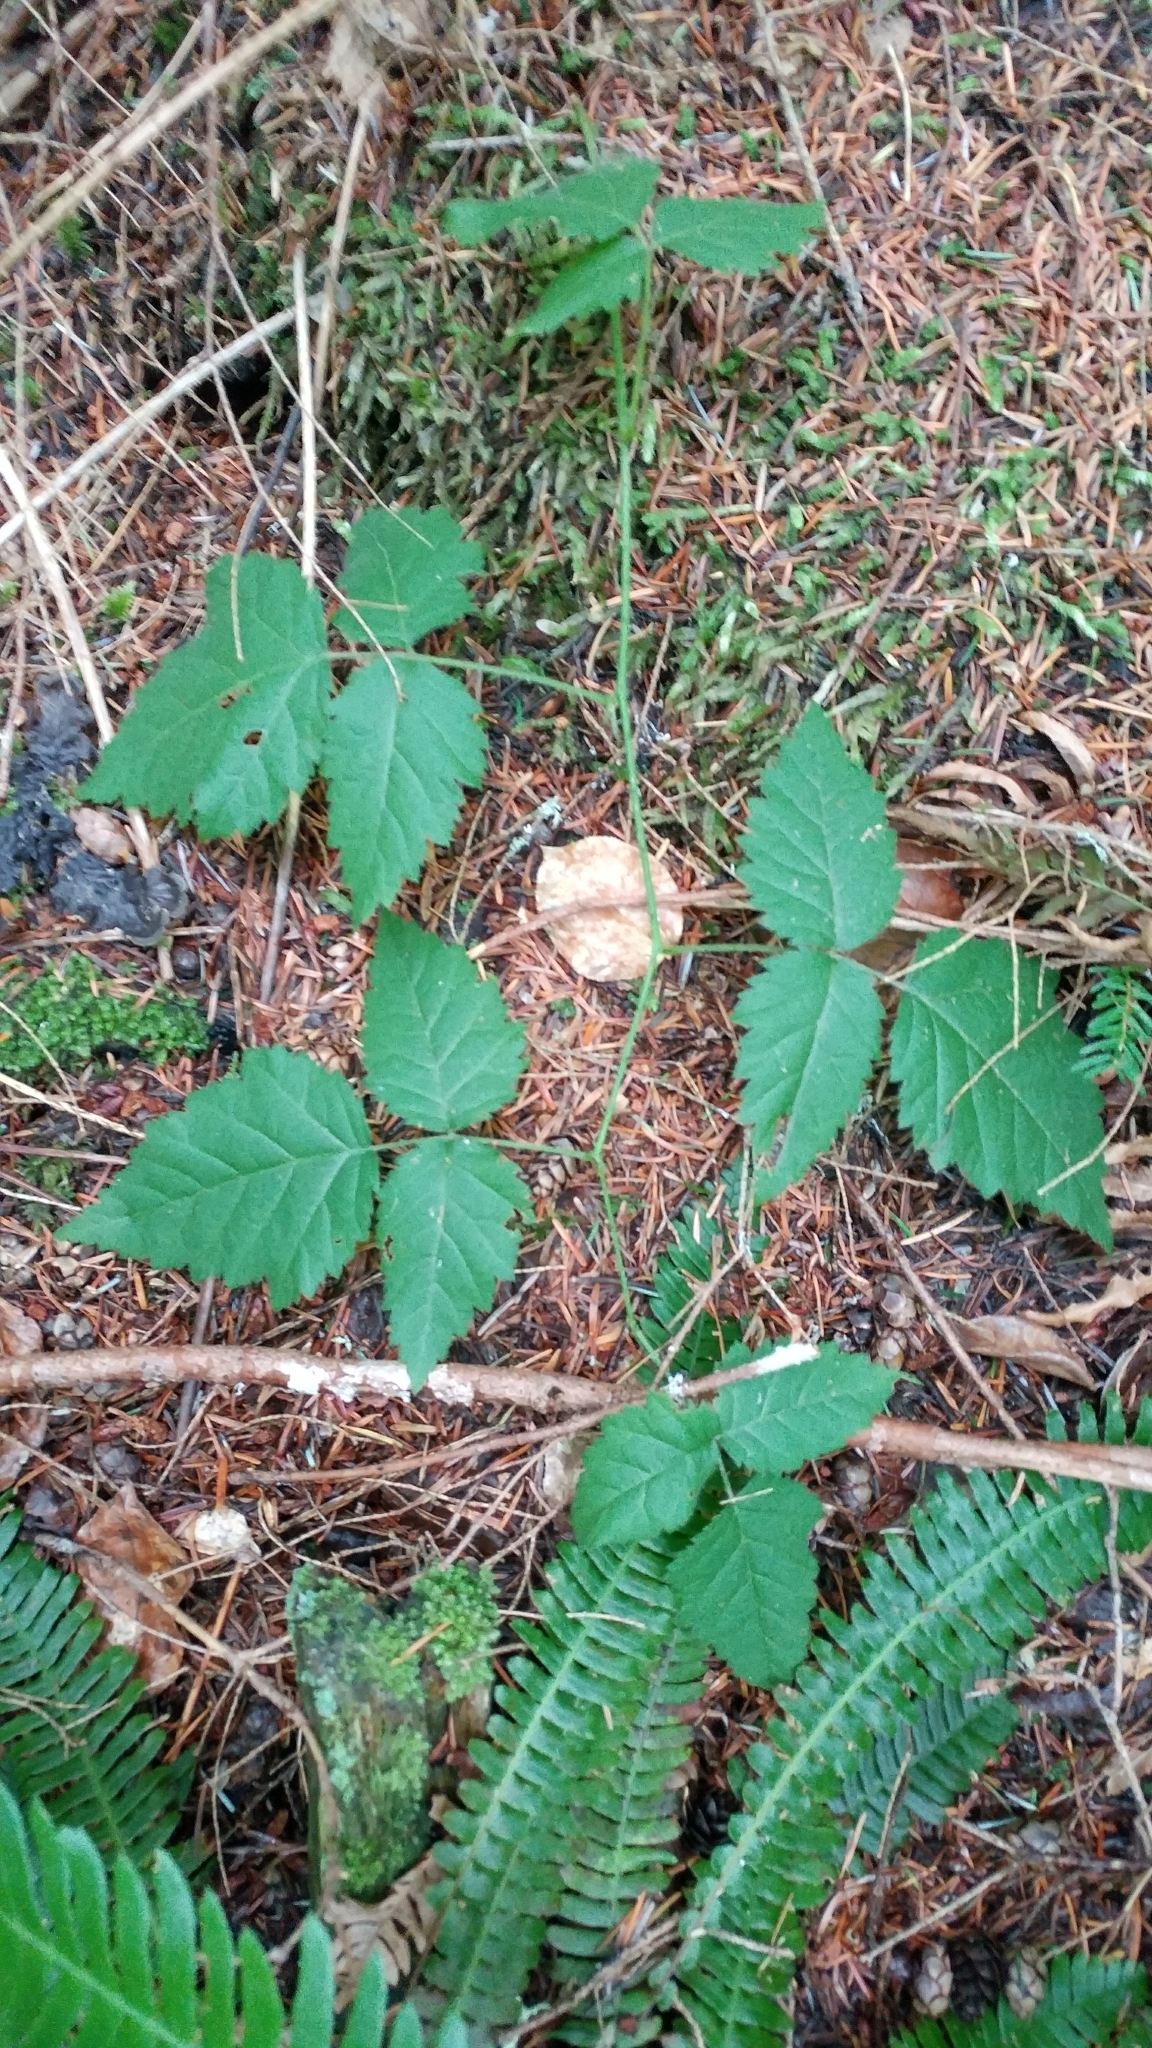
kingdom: Plantae
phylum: Tracheophyta
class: Magnoliopsida
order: Rosales
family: Rosaceae
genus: Rubus
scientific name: Rubus ursinus
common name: Pacific blackberry
